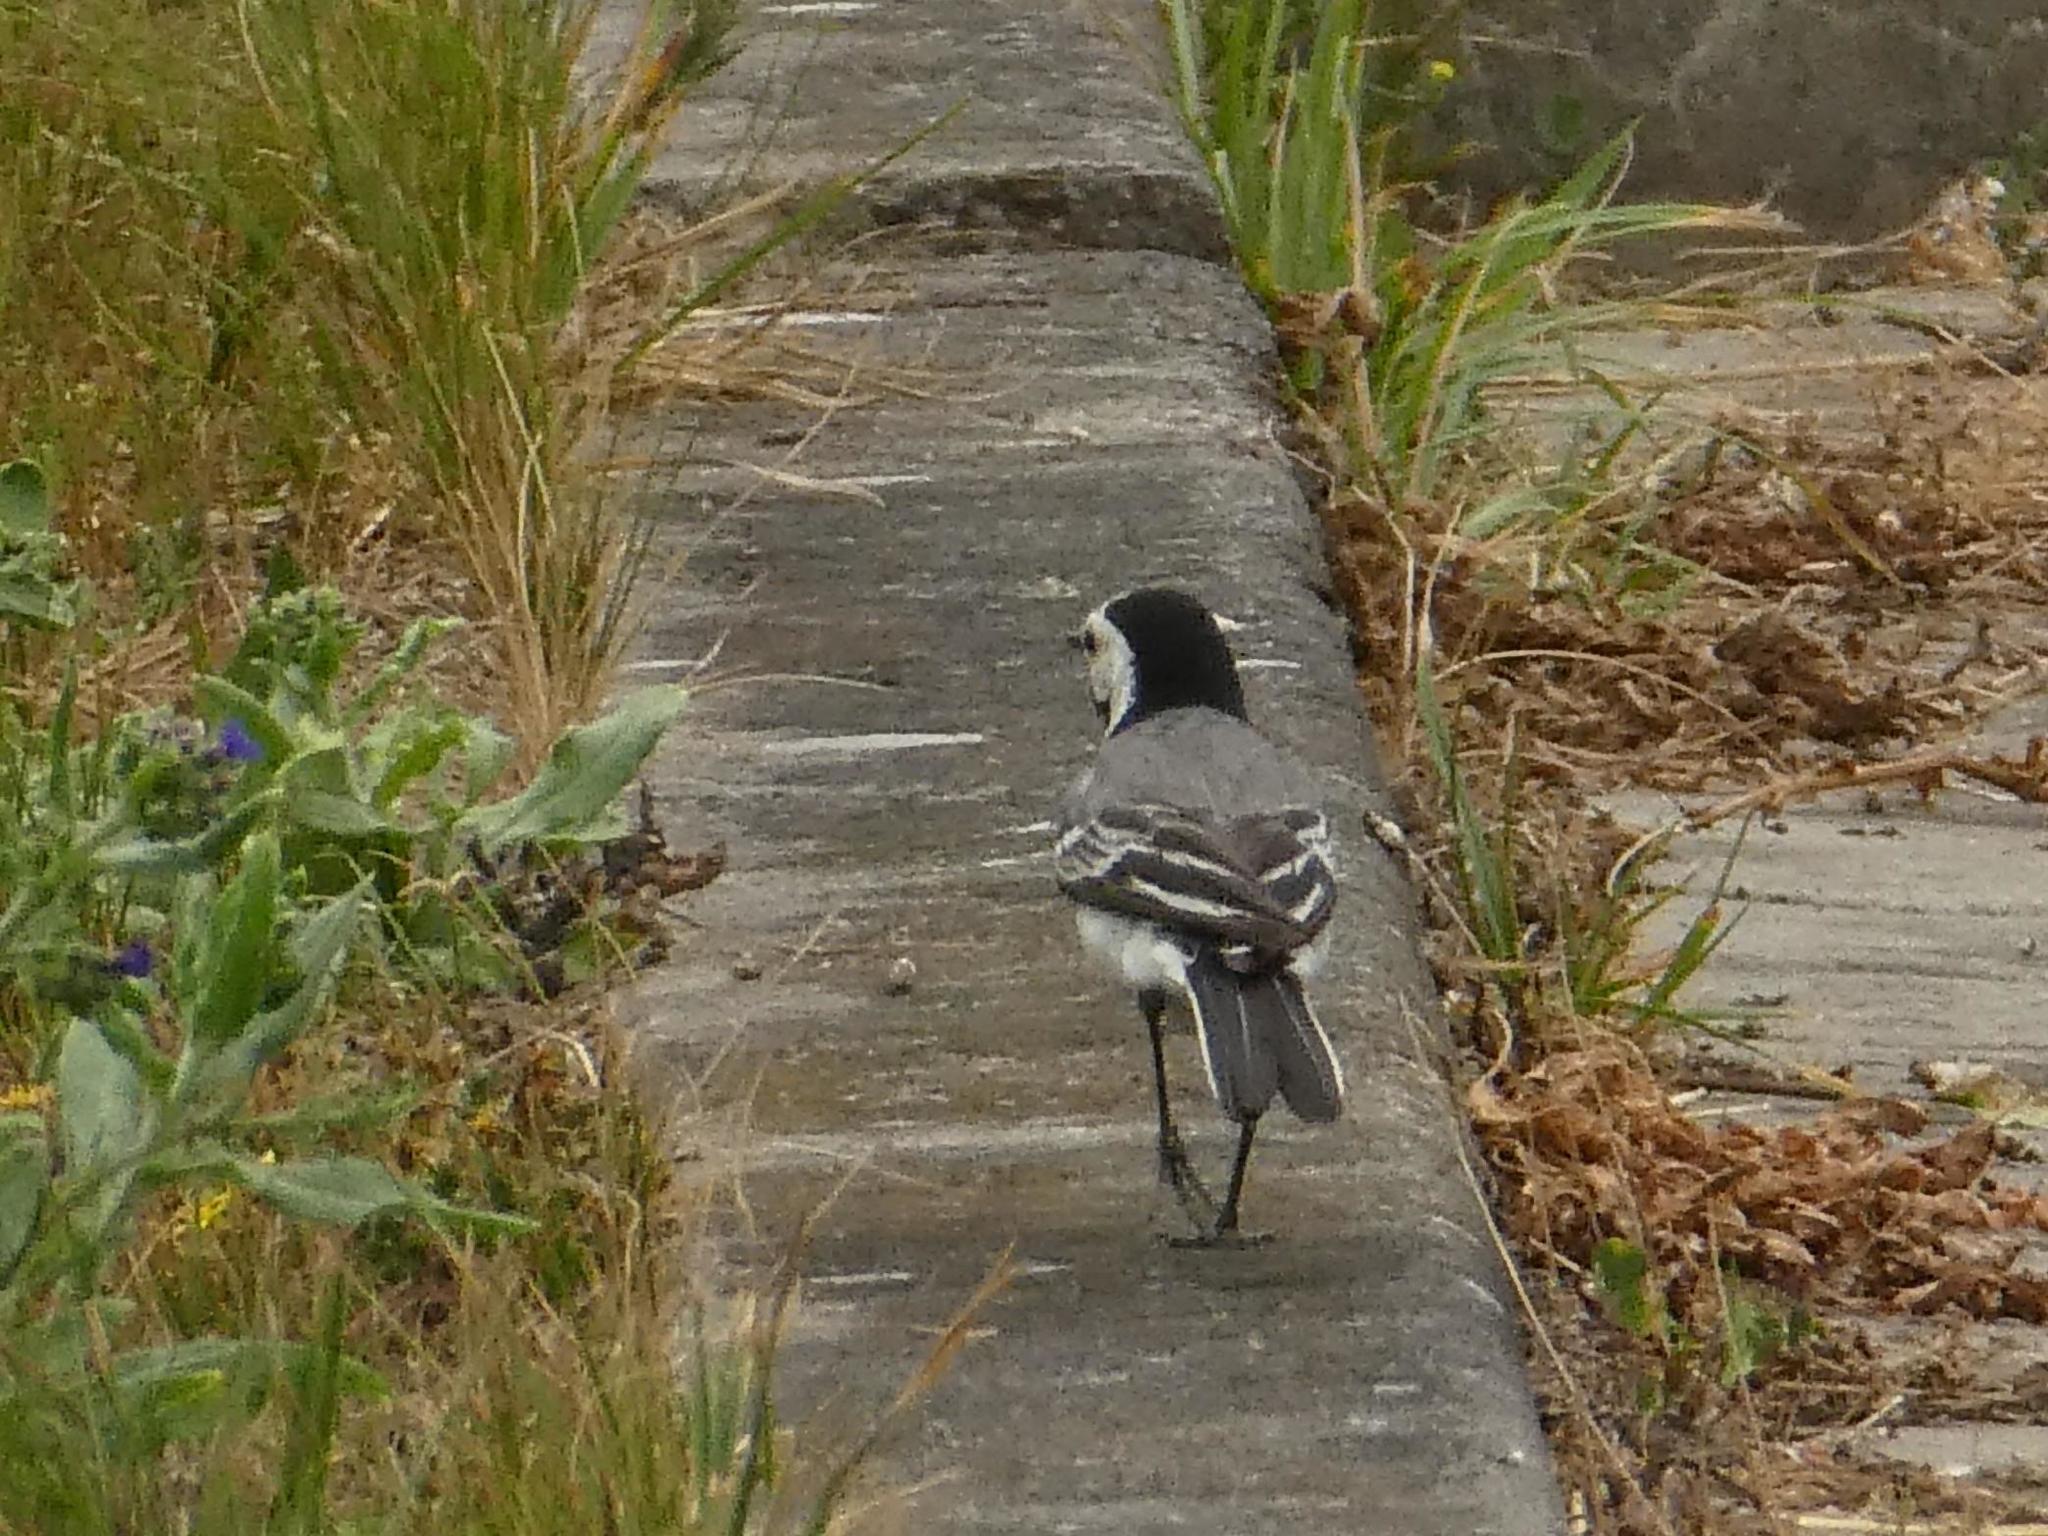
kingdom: Animalia
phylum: Chordata
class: Aves
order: Passeriformes
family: Motacillidae
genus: Motacilla
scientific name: Motacilla alba
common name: White wagtail
